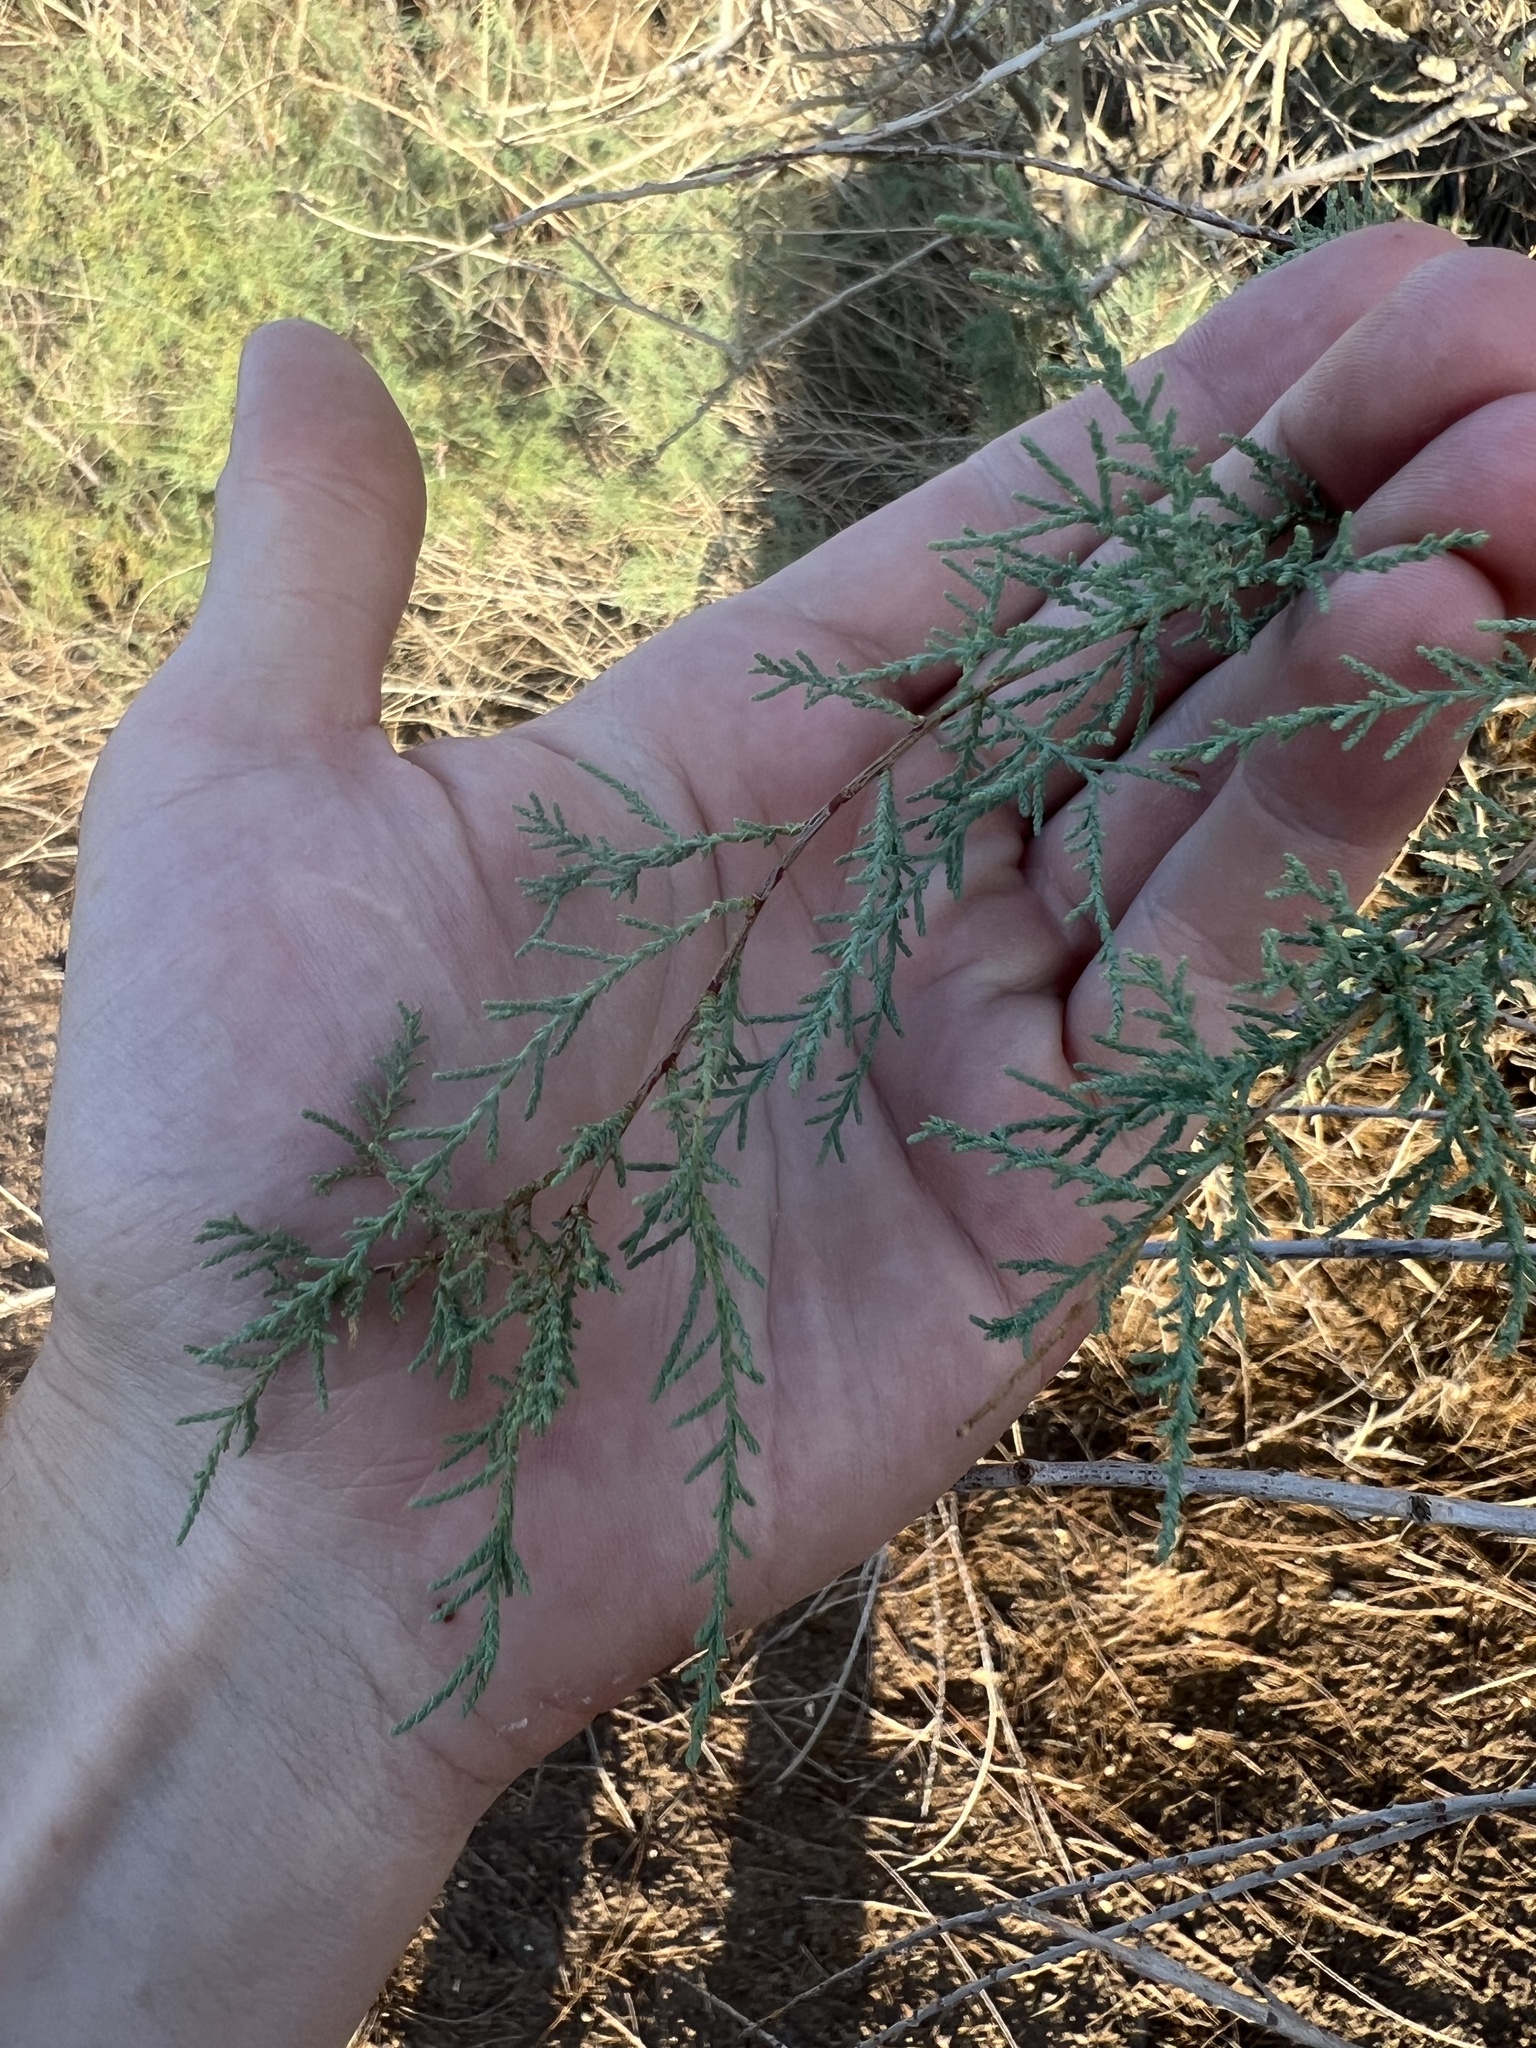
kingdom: Plantae
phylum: Tracheophyta
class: Magnoliopsida
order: Caryophyllales
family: Tamaricaceae
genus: Tamarix
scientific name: Tamarix ramosissima
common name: Pink tamarisk
